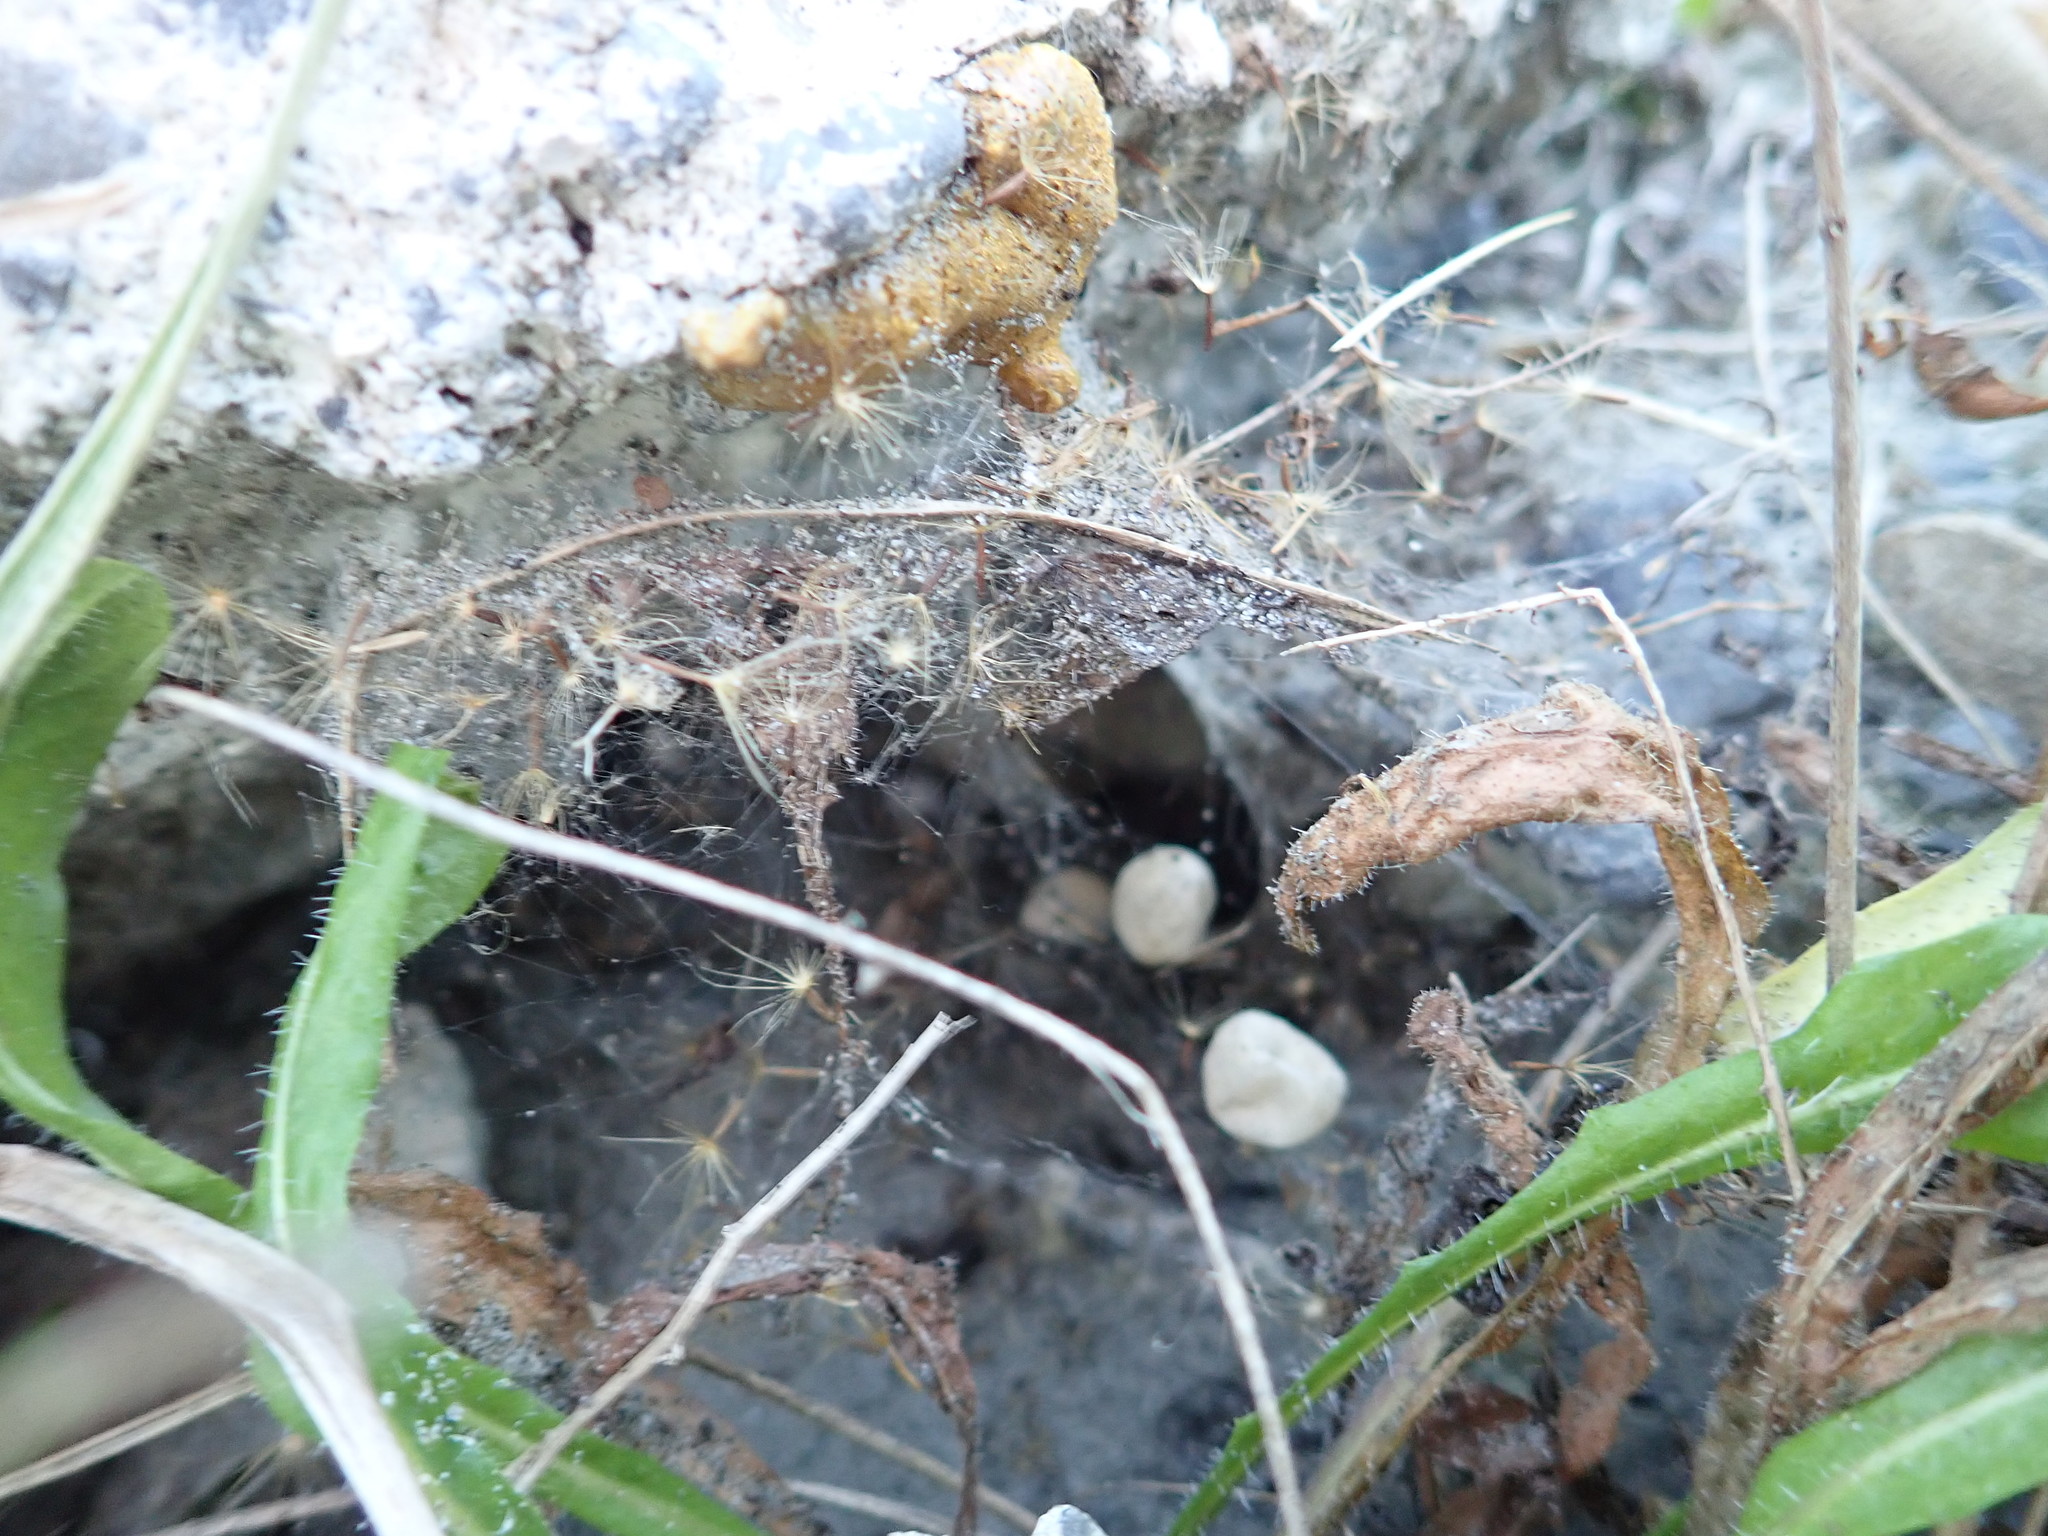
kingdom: Animalia
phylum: Arthropoda
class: Arachnida
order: Araneae
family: Theridiidae
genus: Latrodectus
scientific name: Latrodectus katipo
